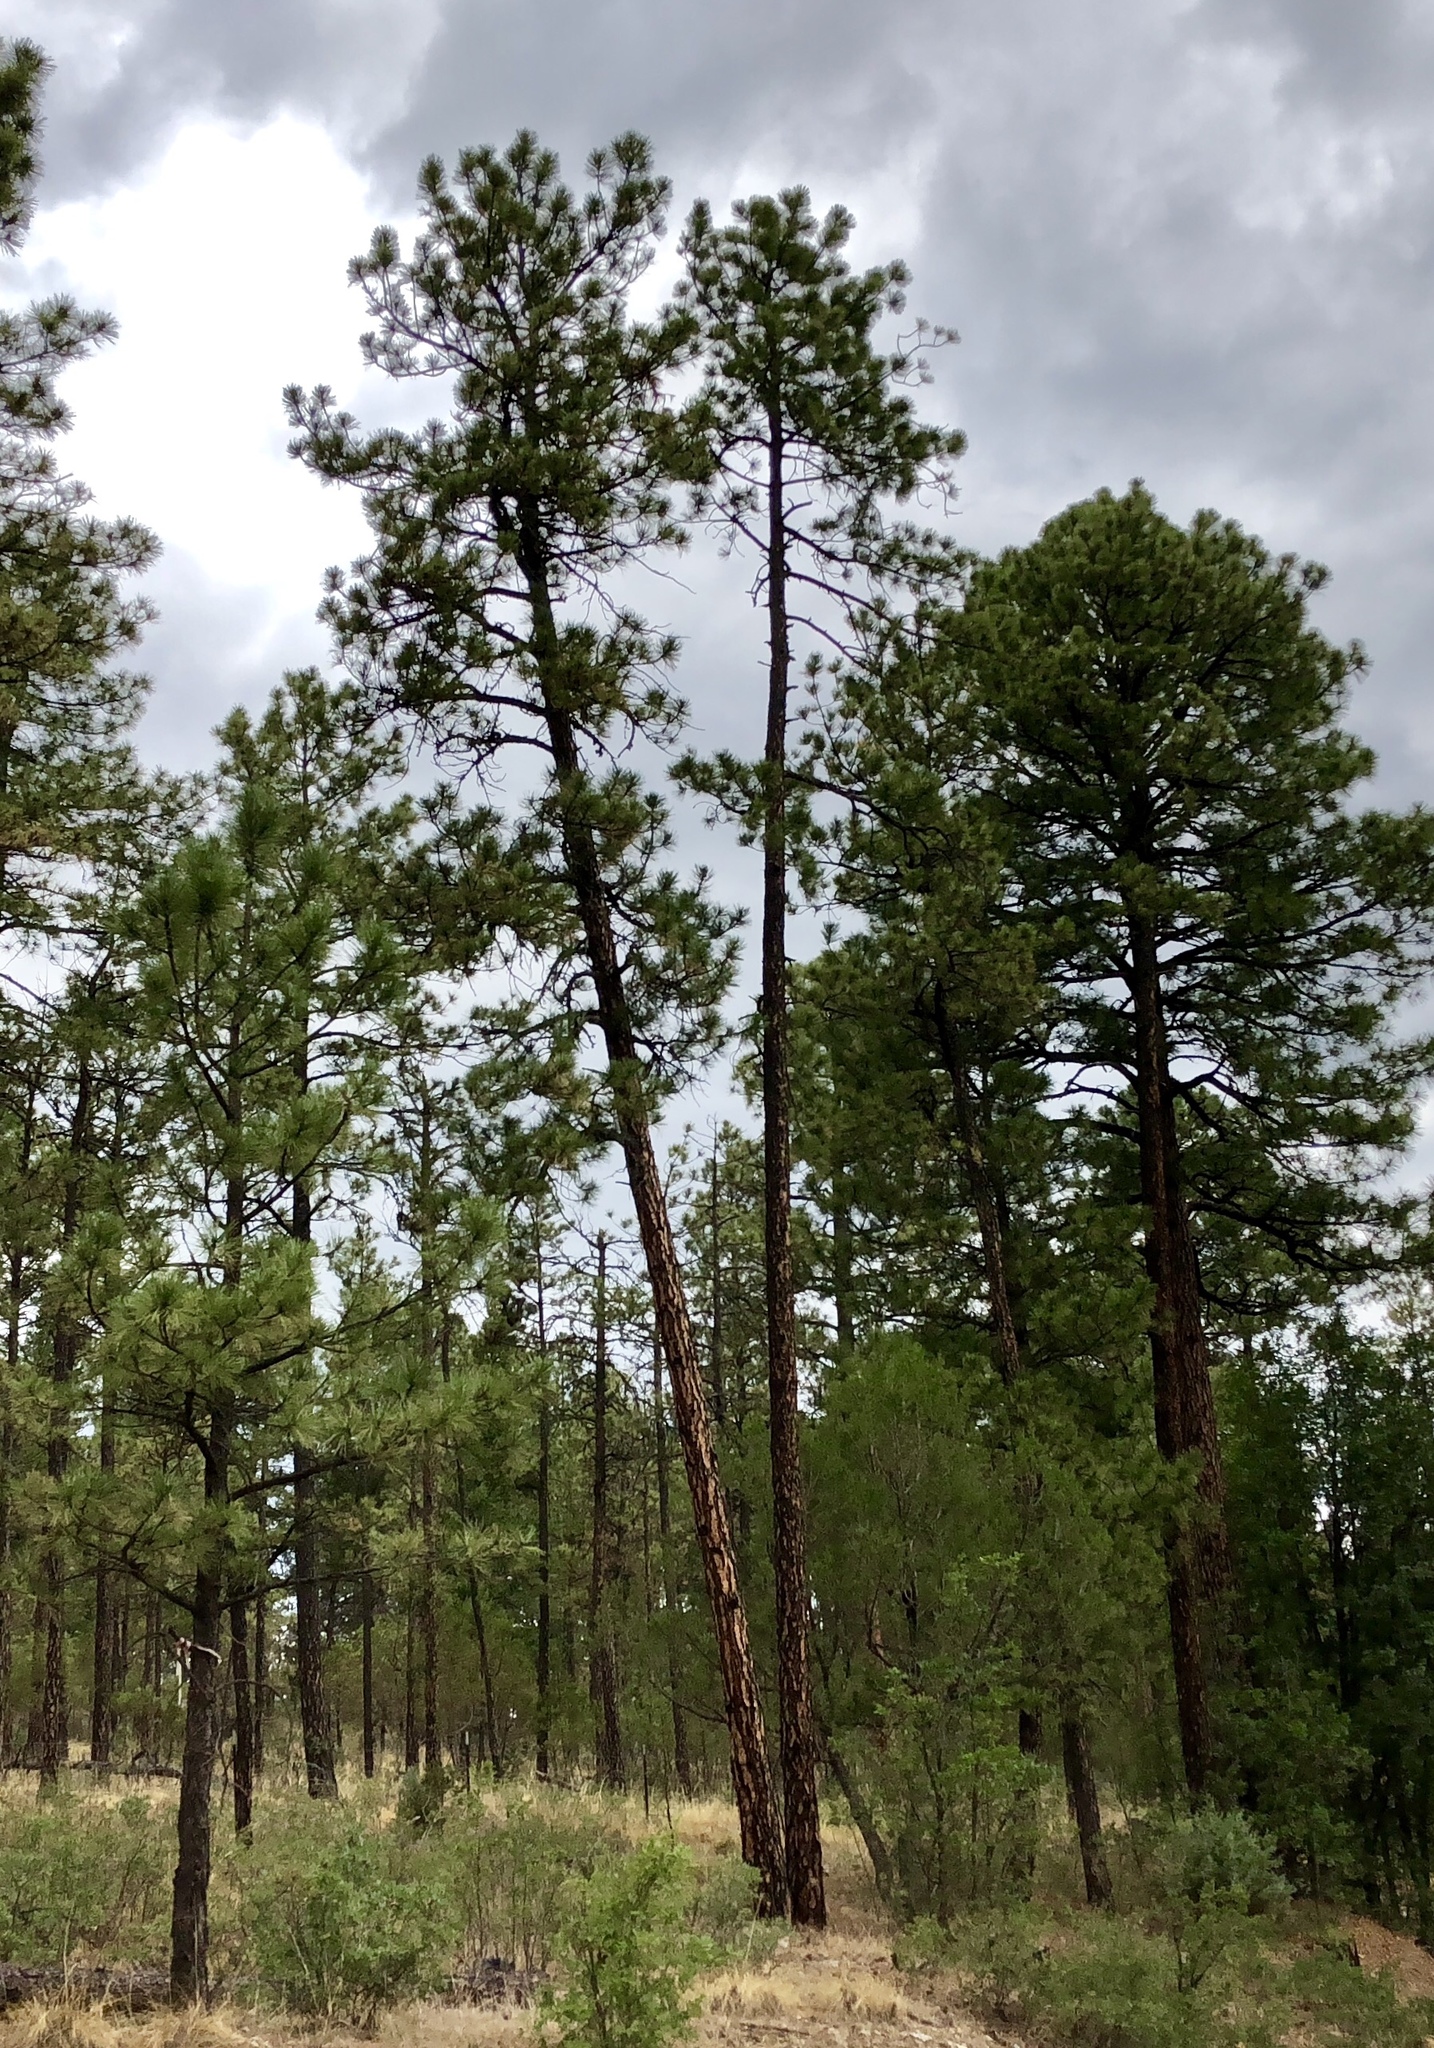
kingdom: Plantae
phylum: Tracheophyta
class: Pinopsida
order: Pinales
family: Pinaceae
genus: Pinus
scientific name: Pinus ponderosa
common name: Western yellow-pine
